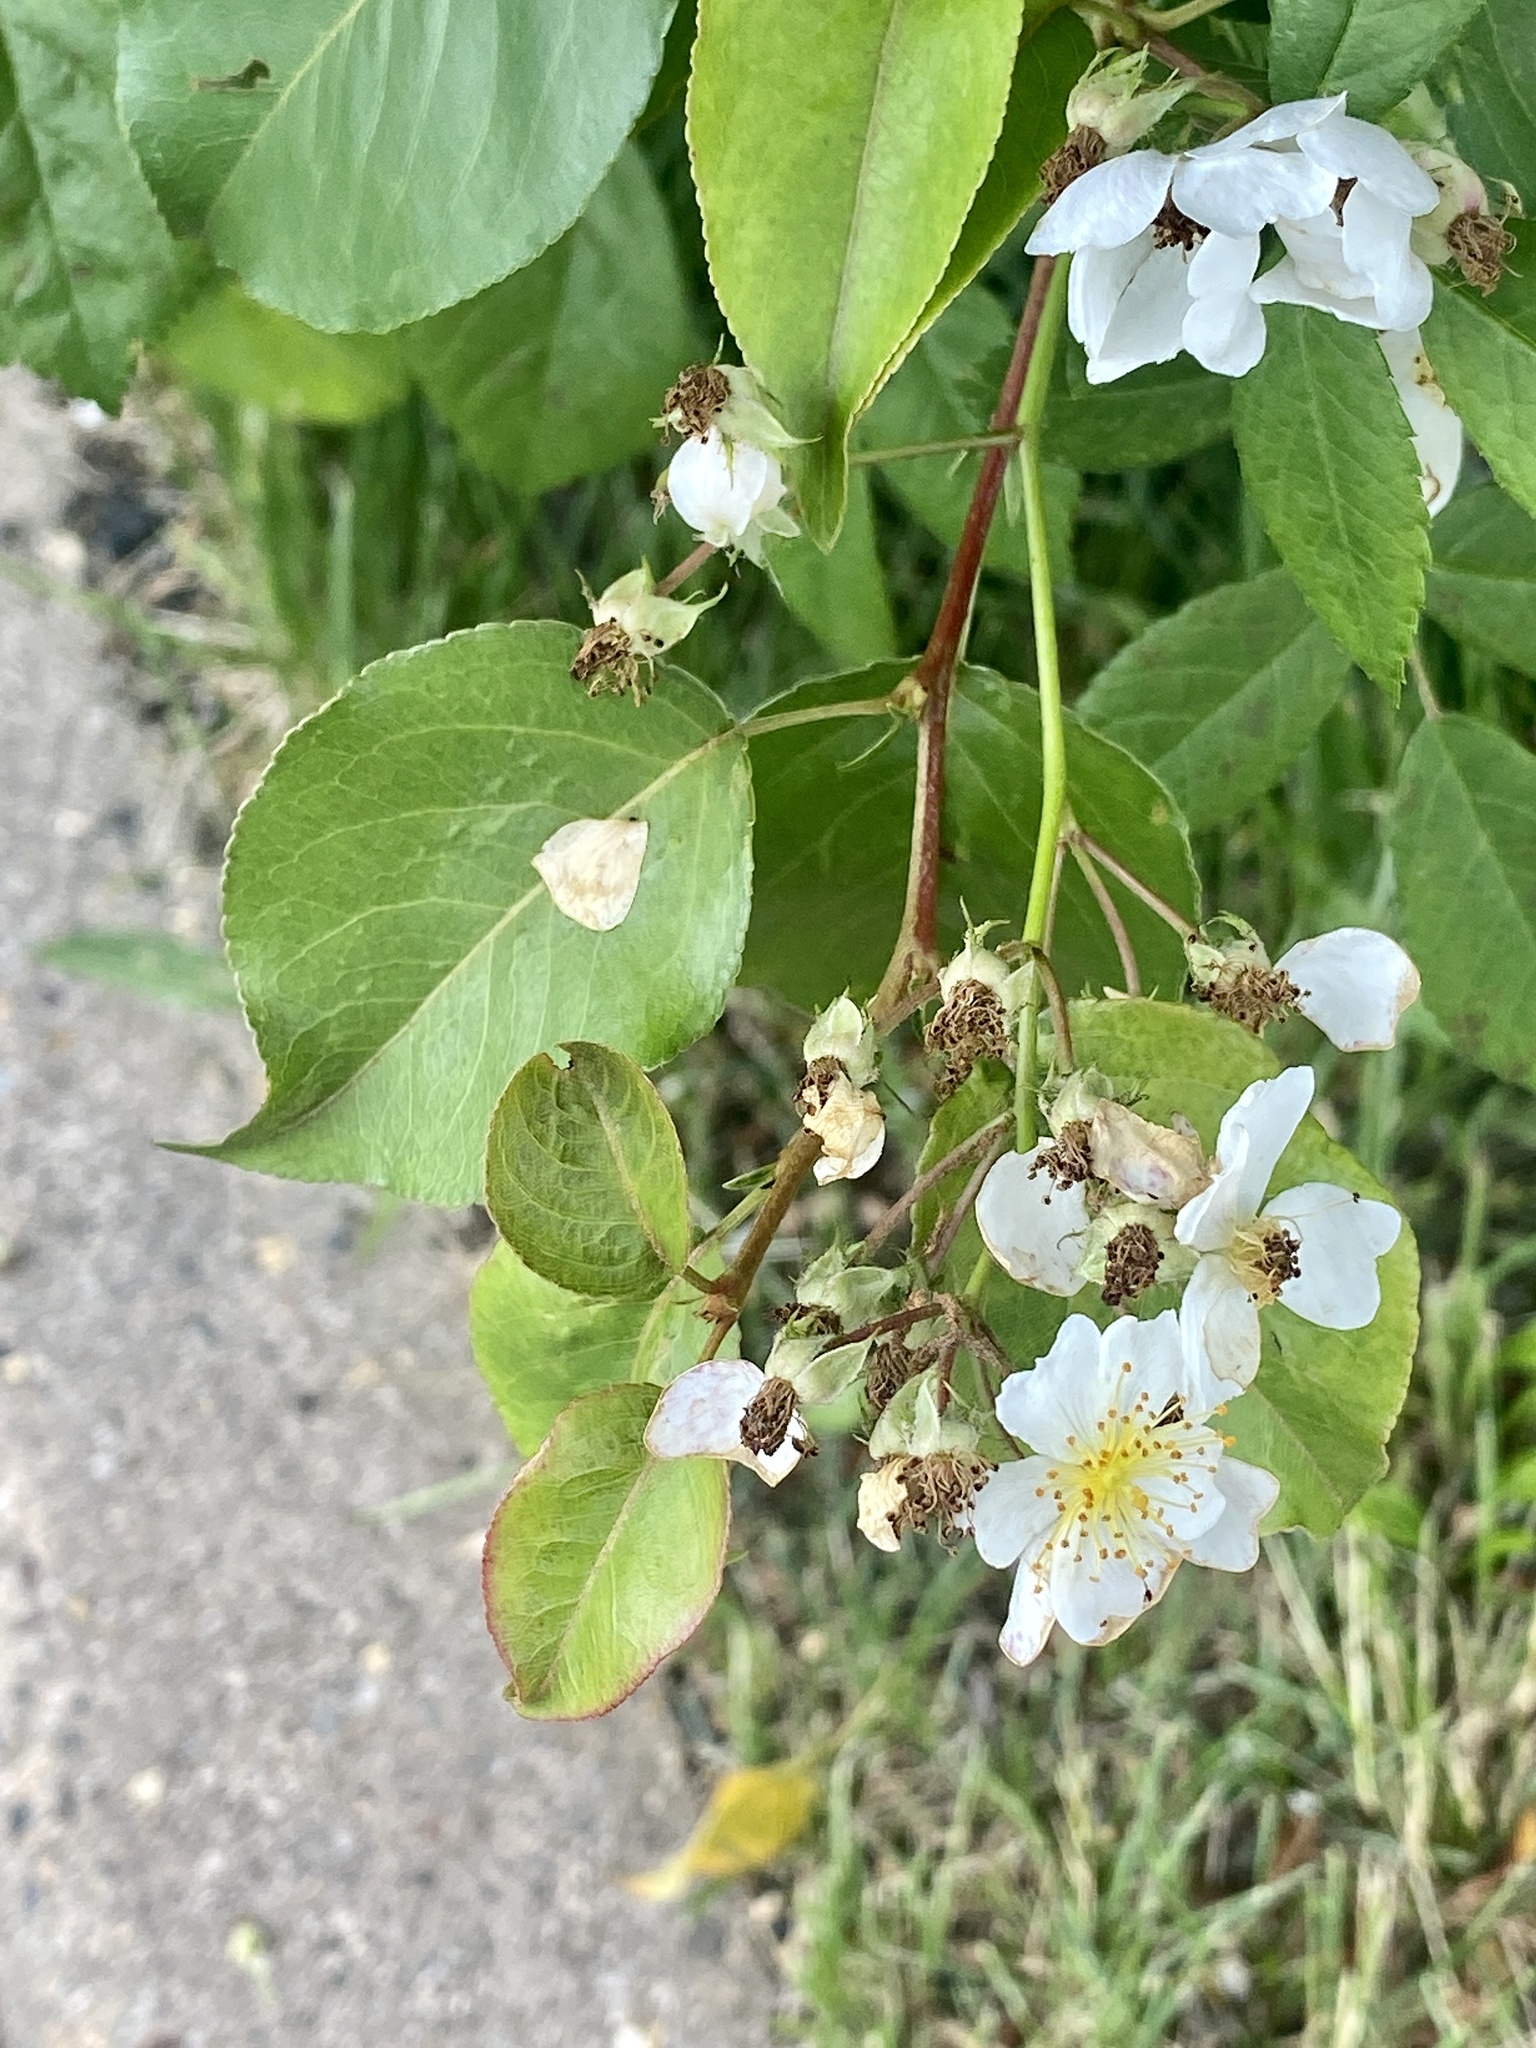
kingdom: Plantae
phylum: Tracheophyta
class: Magnoliopsida
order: Rosales
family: Rosaceae
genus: Rosa
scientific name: Rosa multiflora
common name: Multiflora rose
